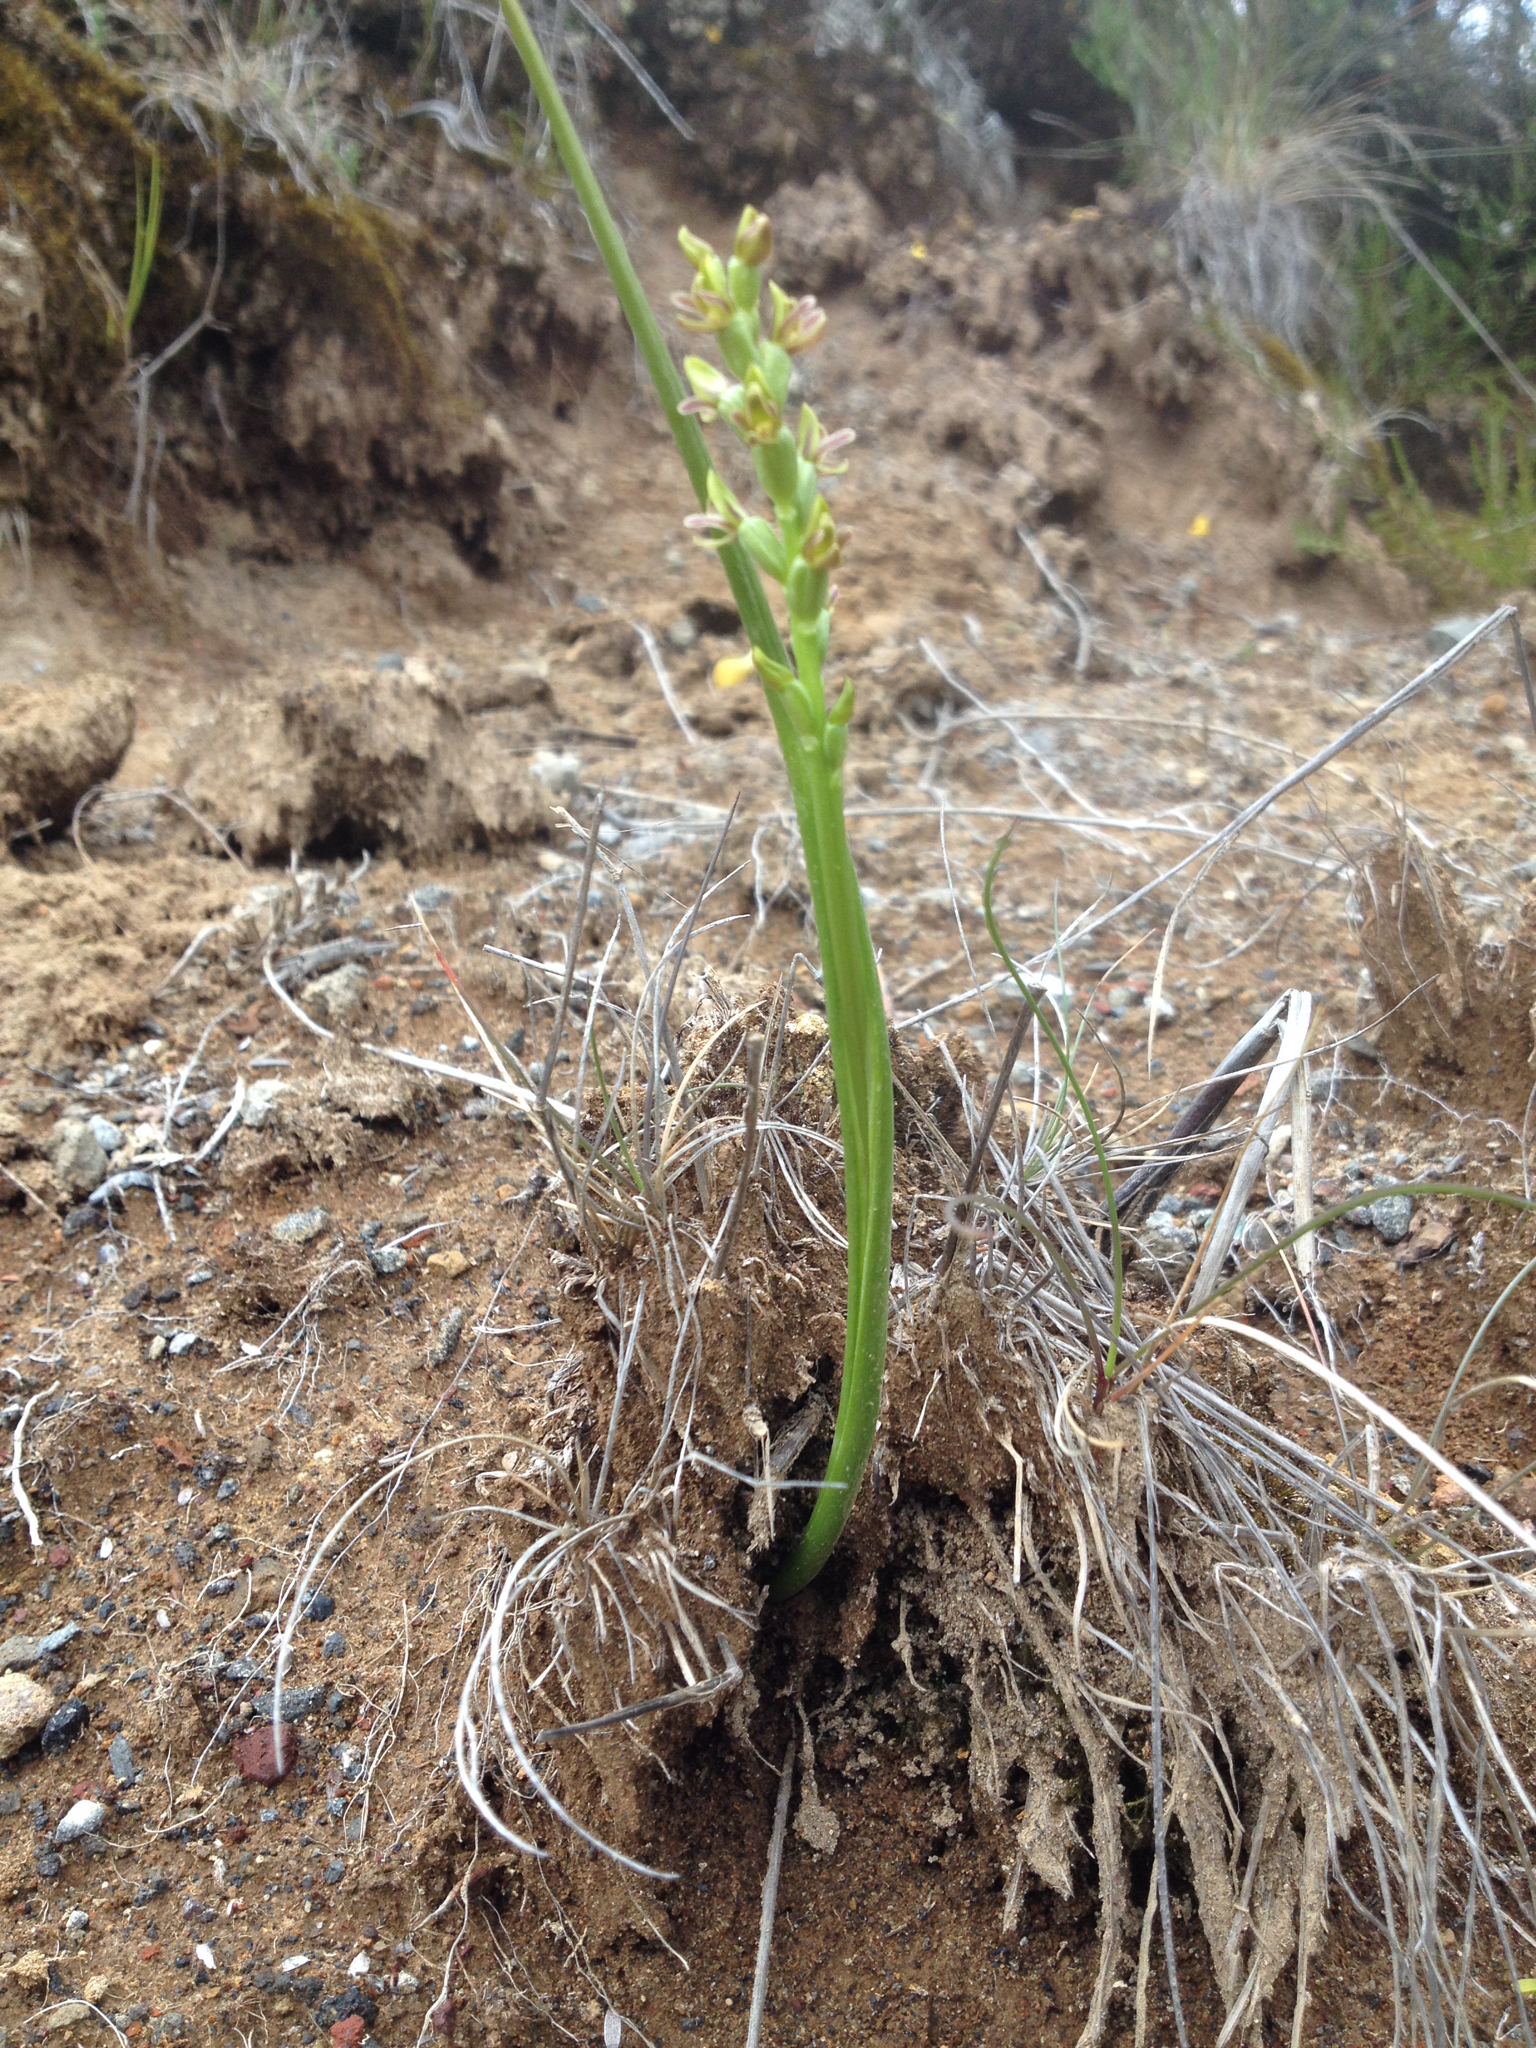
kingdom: Plantae
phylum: Tracheophyta
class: Liliopsida
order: Asparagales
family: Orchidaceae
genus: Prasophyllum
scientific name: Prasophyllum colensoi
